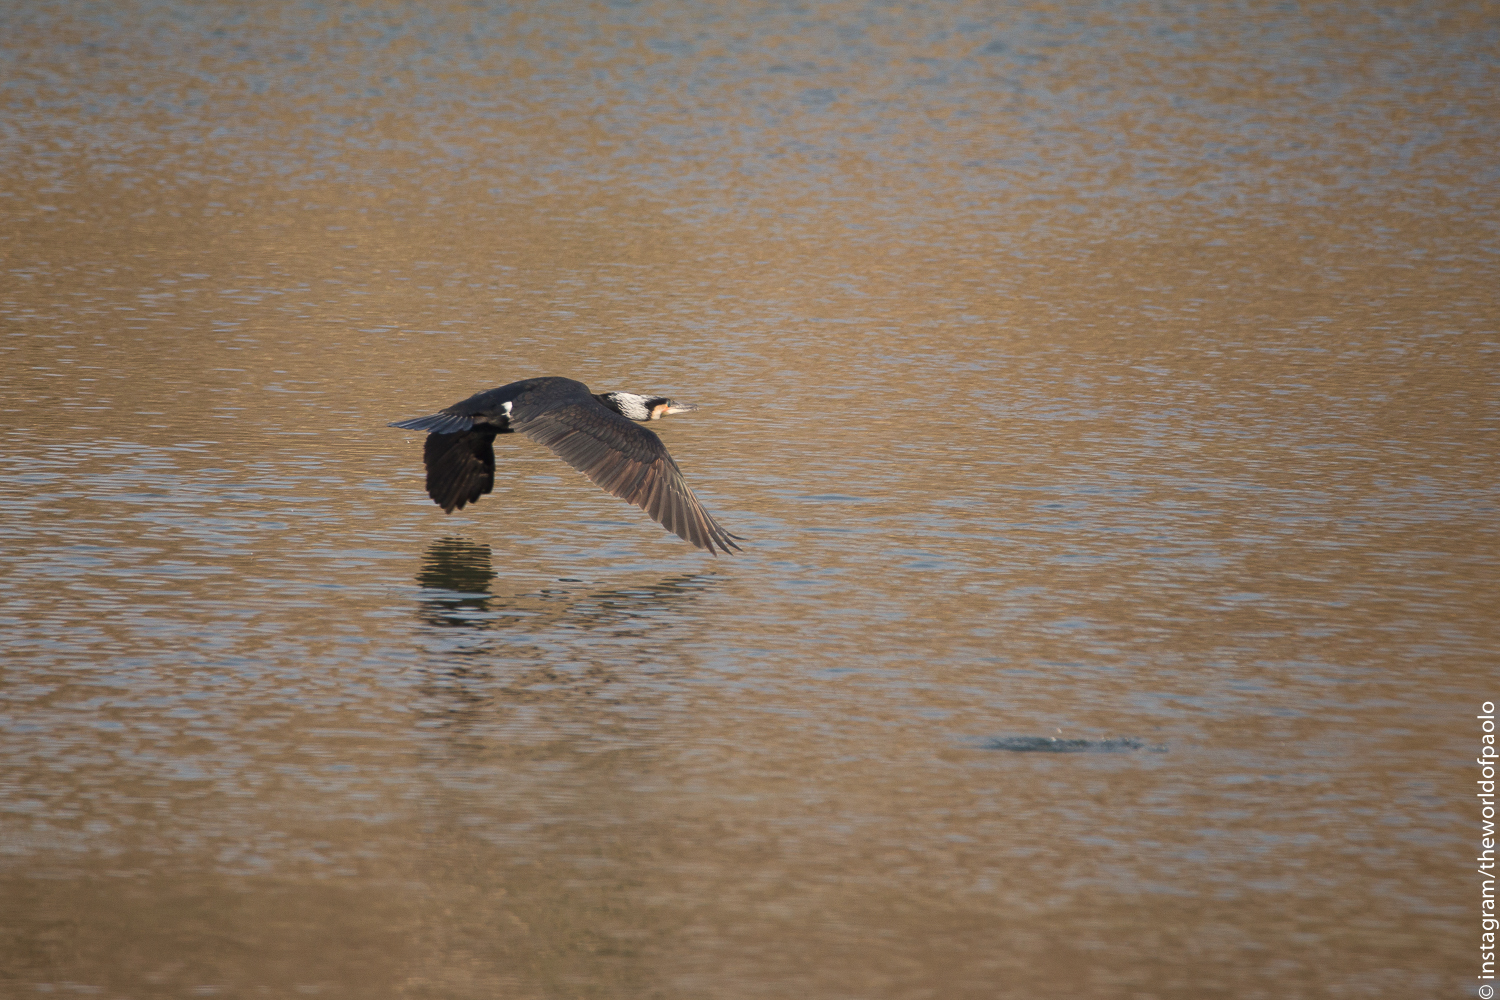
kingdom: Animalia
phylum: Chordata
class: Aves
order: Suliformes
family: Phalacrocoracidae
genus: Phalacrocorax
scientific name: Phalacrocorax carbo
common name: Great cormorant
